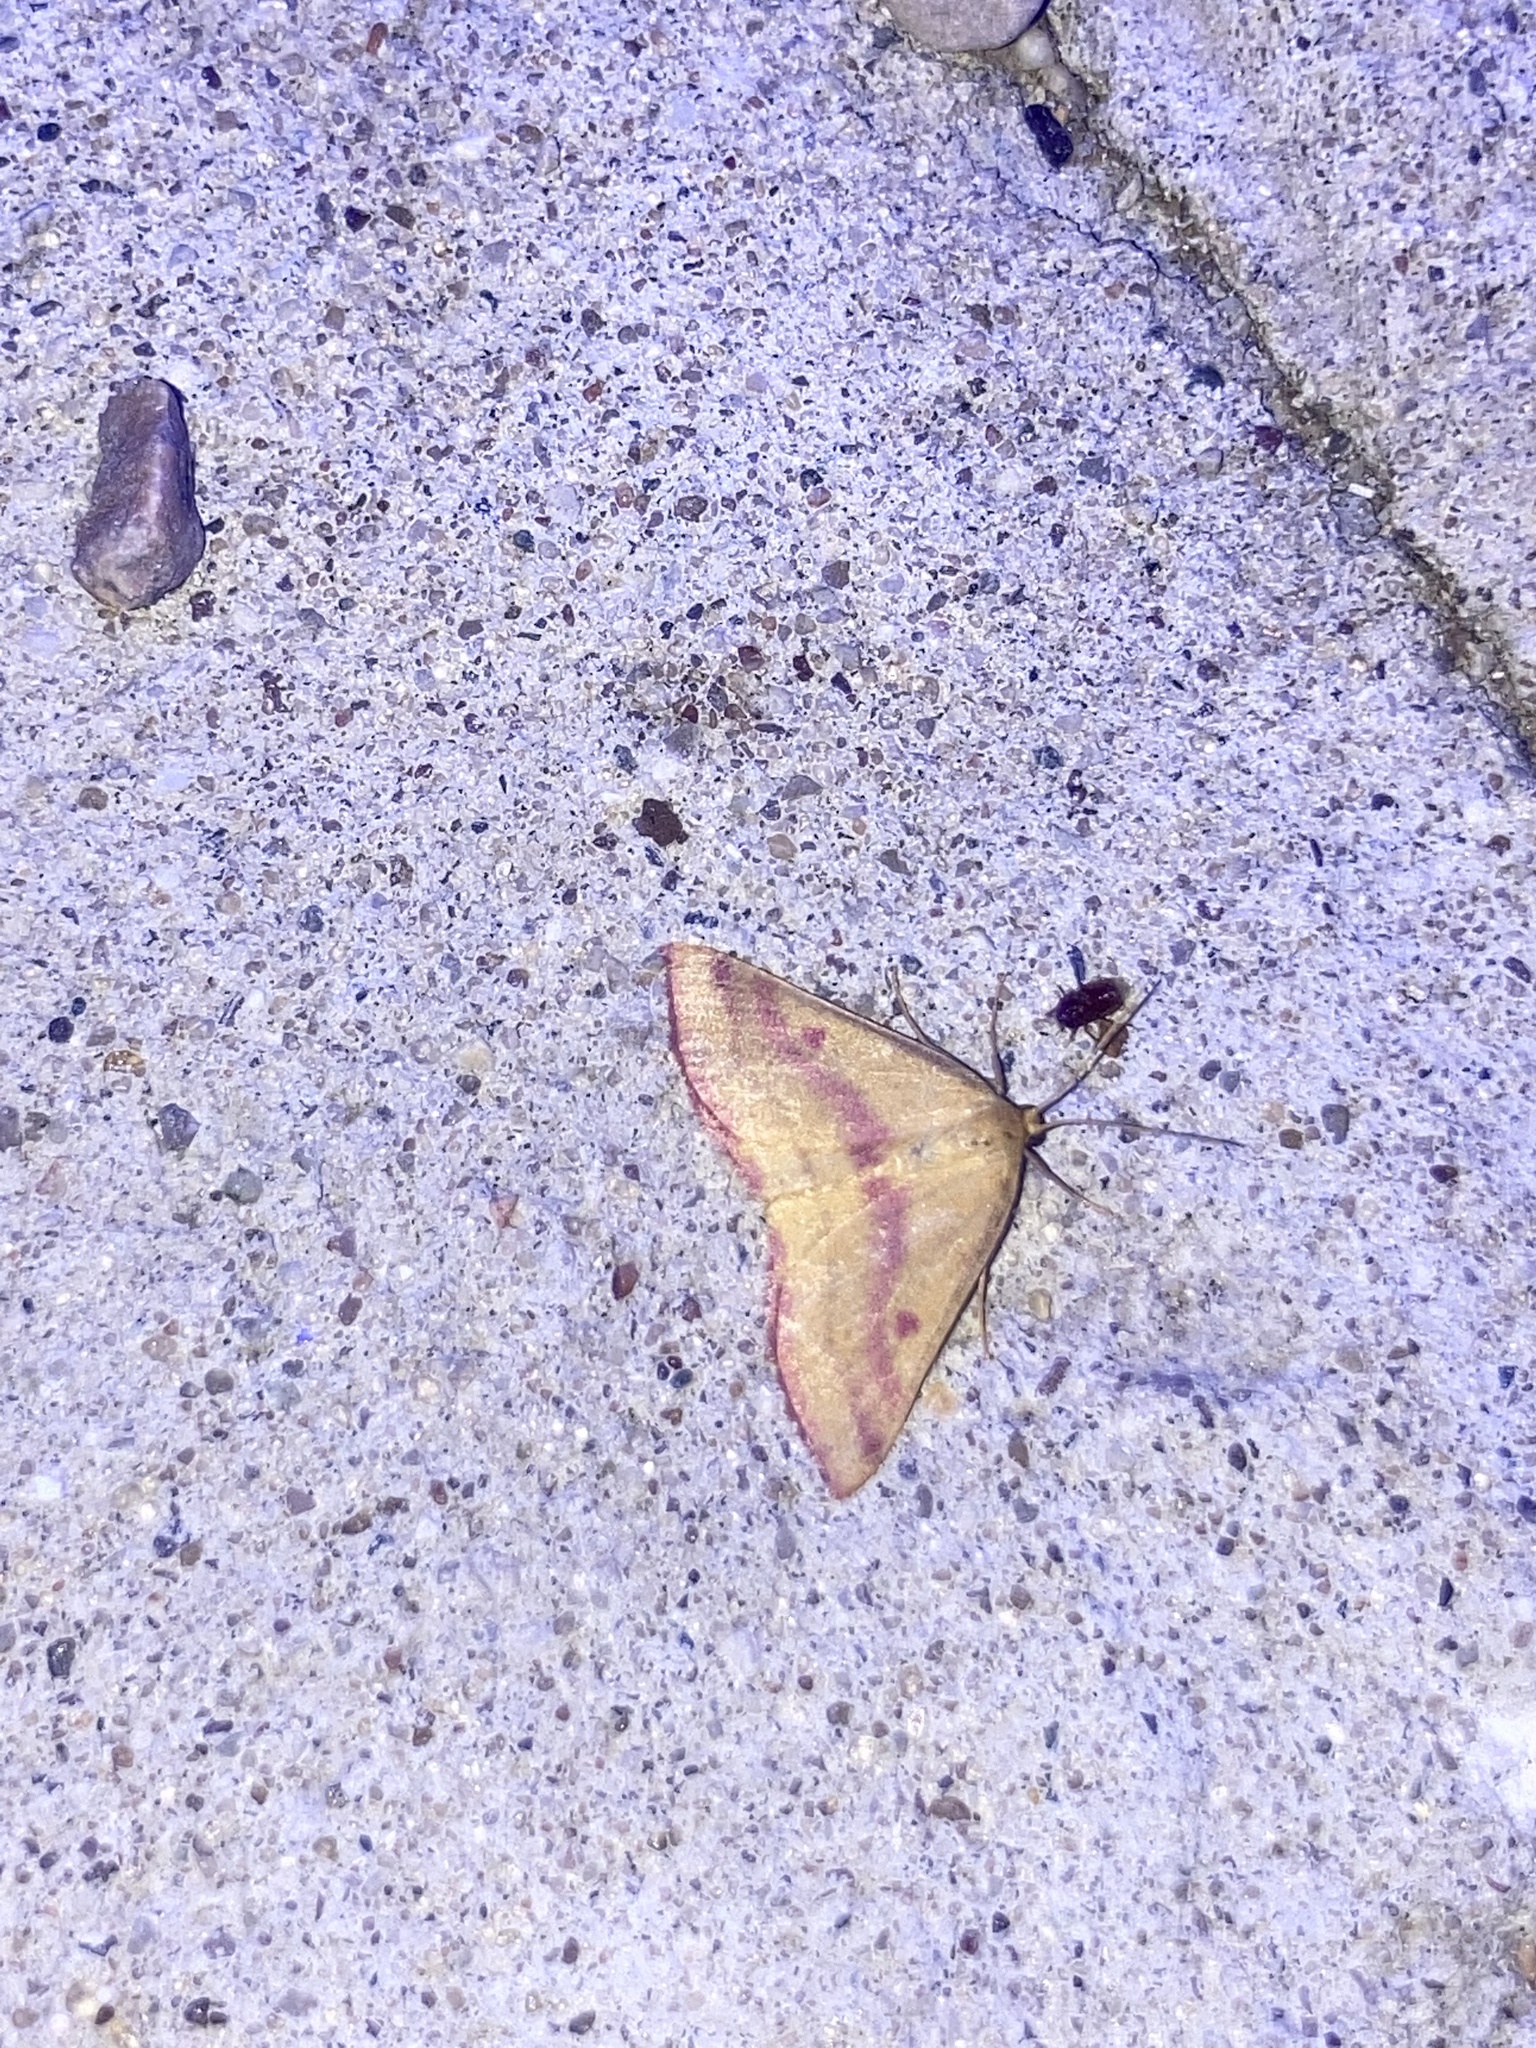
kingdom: Animalia
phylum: Arthropoda
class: Insecta
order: Lepidoptera
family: Geometridae
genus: Haematopis
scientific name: Haematopis grataria
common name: Chickweed geometer
